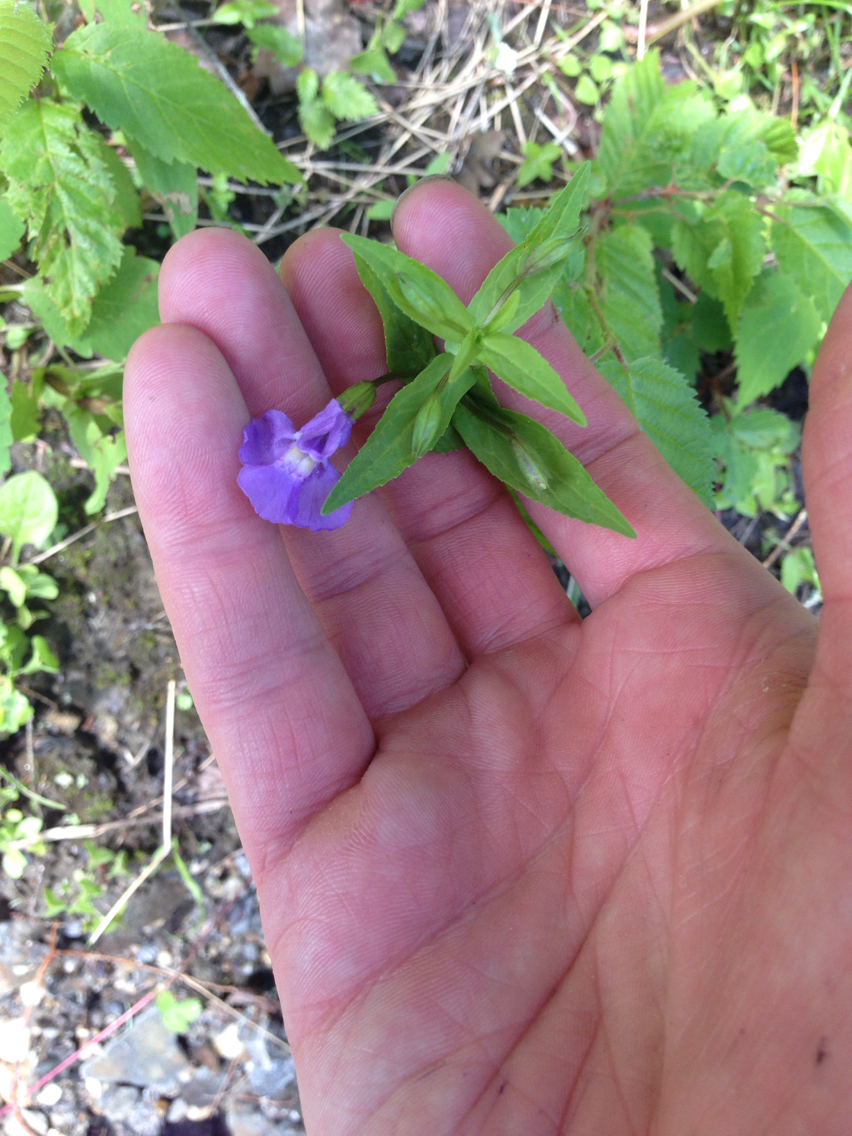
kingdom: Plantae
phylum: Tracheophyta
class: Magnoliopsida
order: Lamiales
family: Phrymaceae
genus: Mimulus
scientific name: Mimulus ringens
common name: Allegheny monkeyflower
